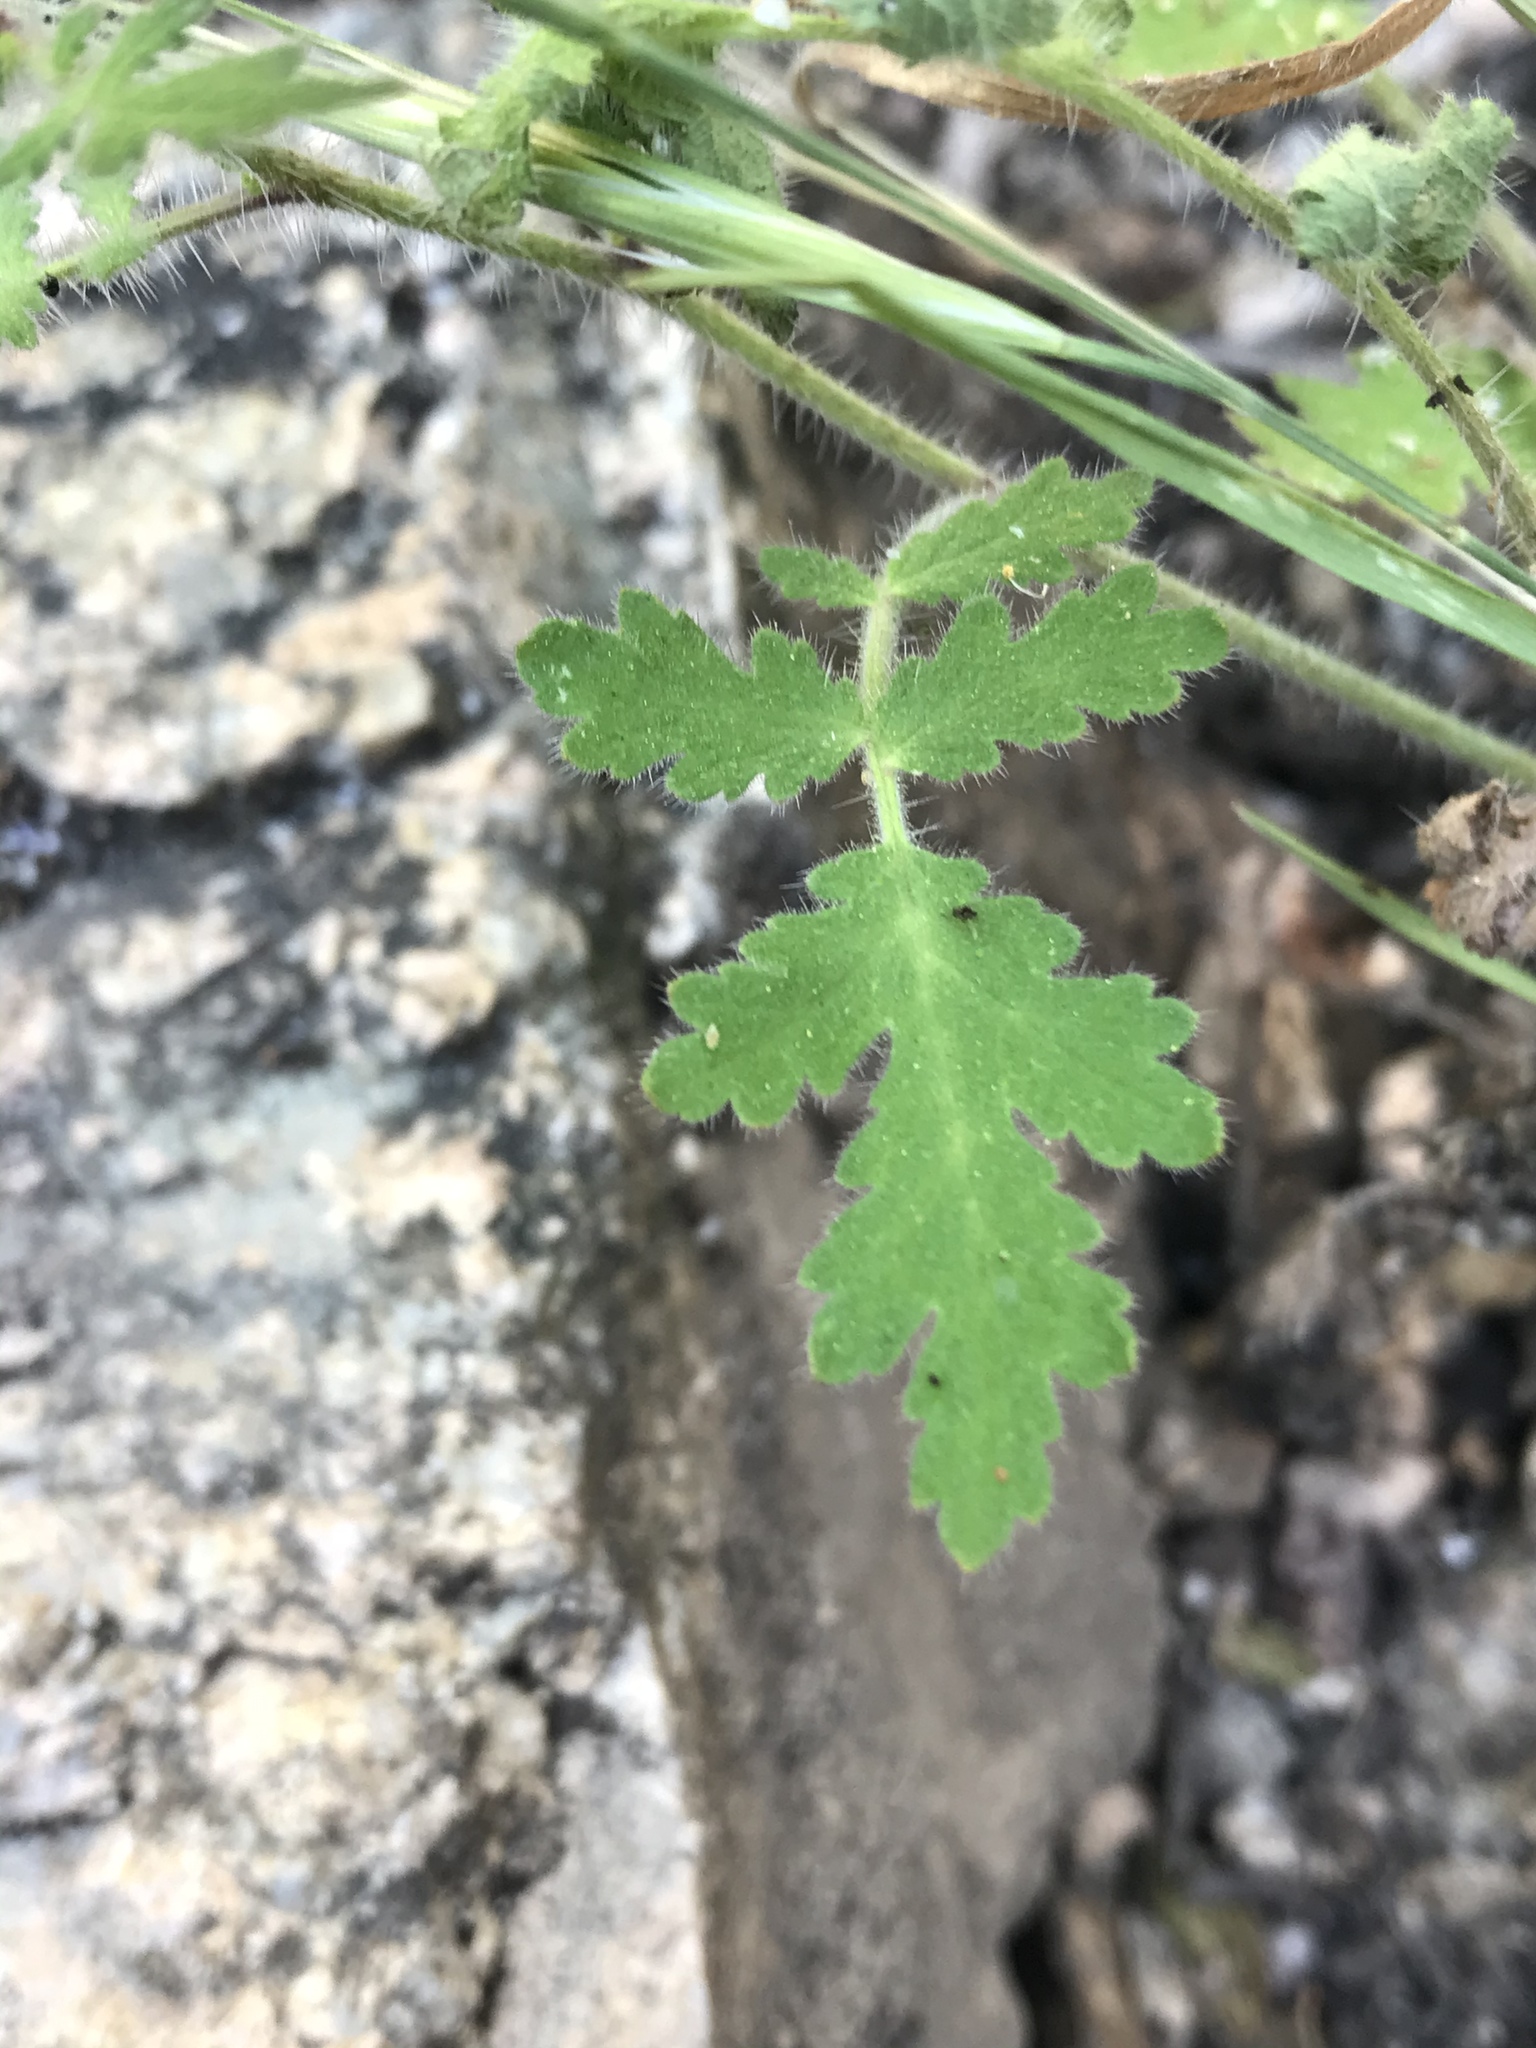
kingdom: Plantae
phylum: Tracheophyta
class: Magnoliopsida
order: Boraginales
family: Hydrophyllaceae
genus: Phacelia
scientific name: Phacelia cicutaria
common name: Caterpillar phacelia
